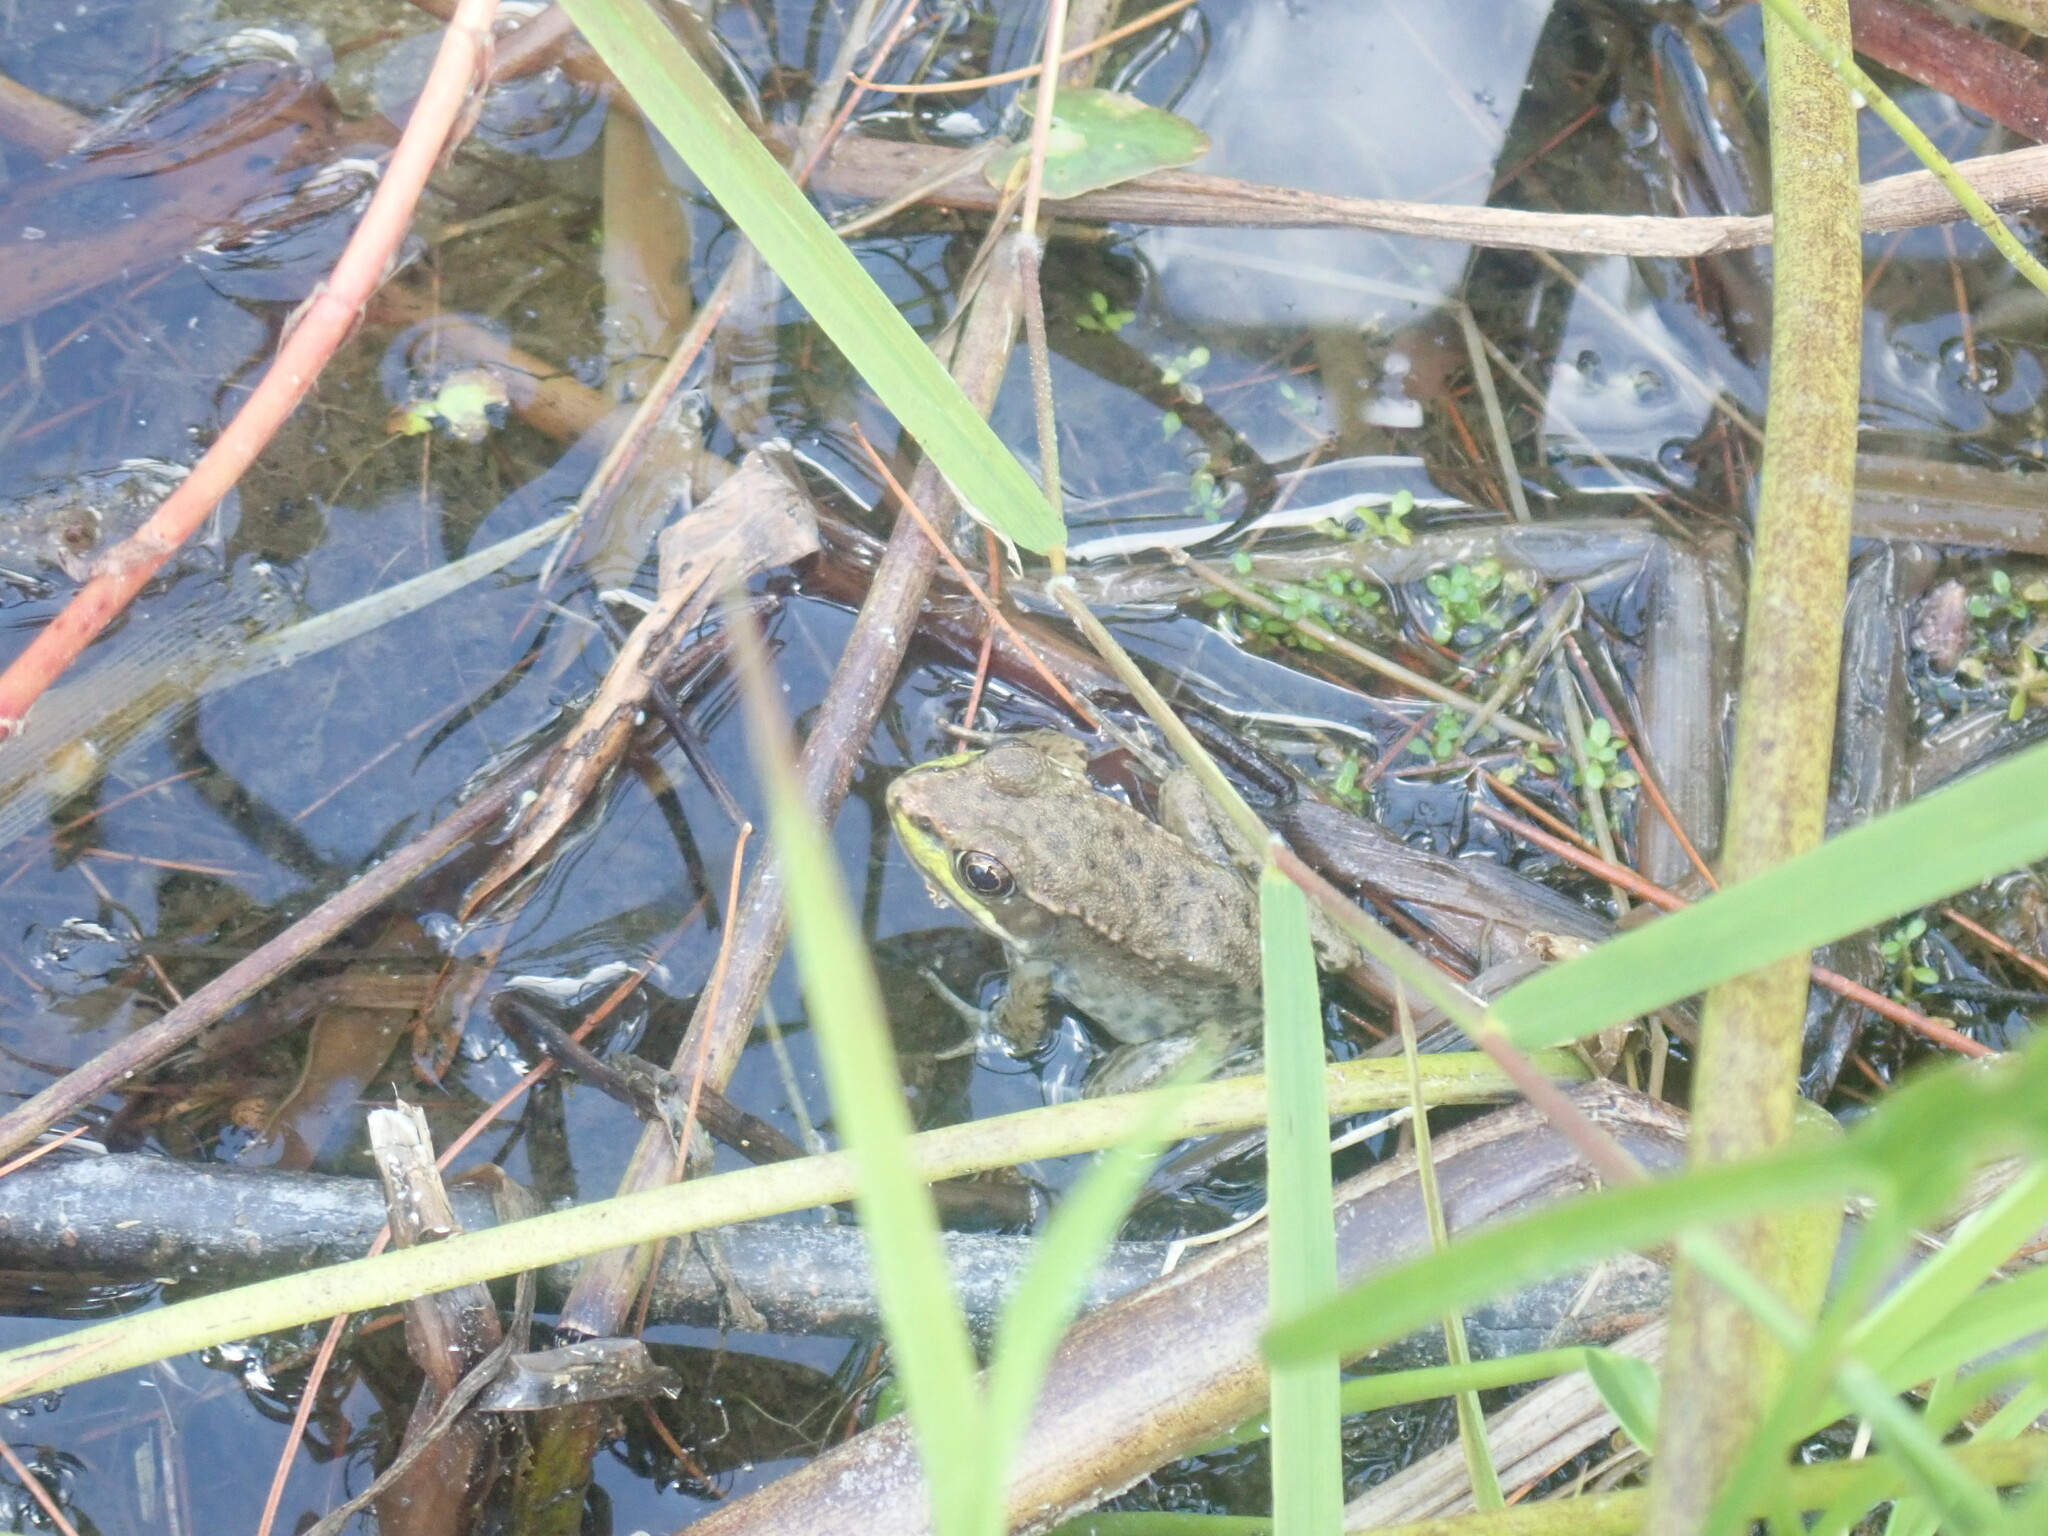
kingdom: Animalia
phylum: Chordata
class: Amphibia
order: Anura
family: Ranidae
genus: Lithobates
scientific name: Lithobates clamitans
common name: Green frog
